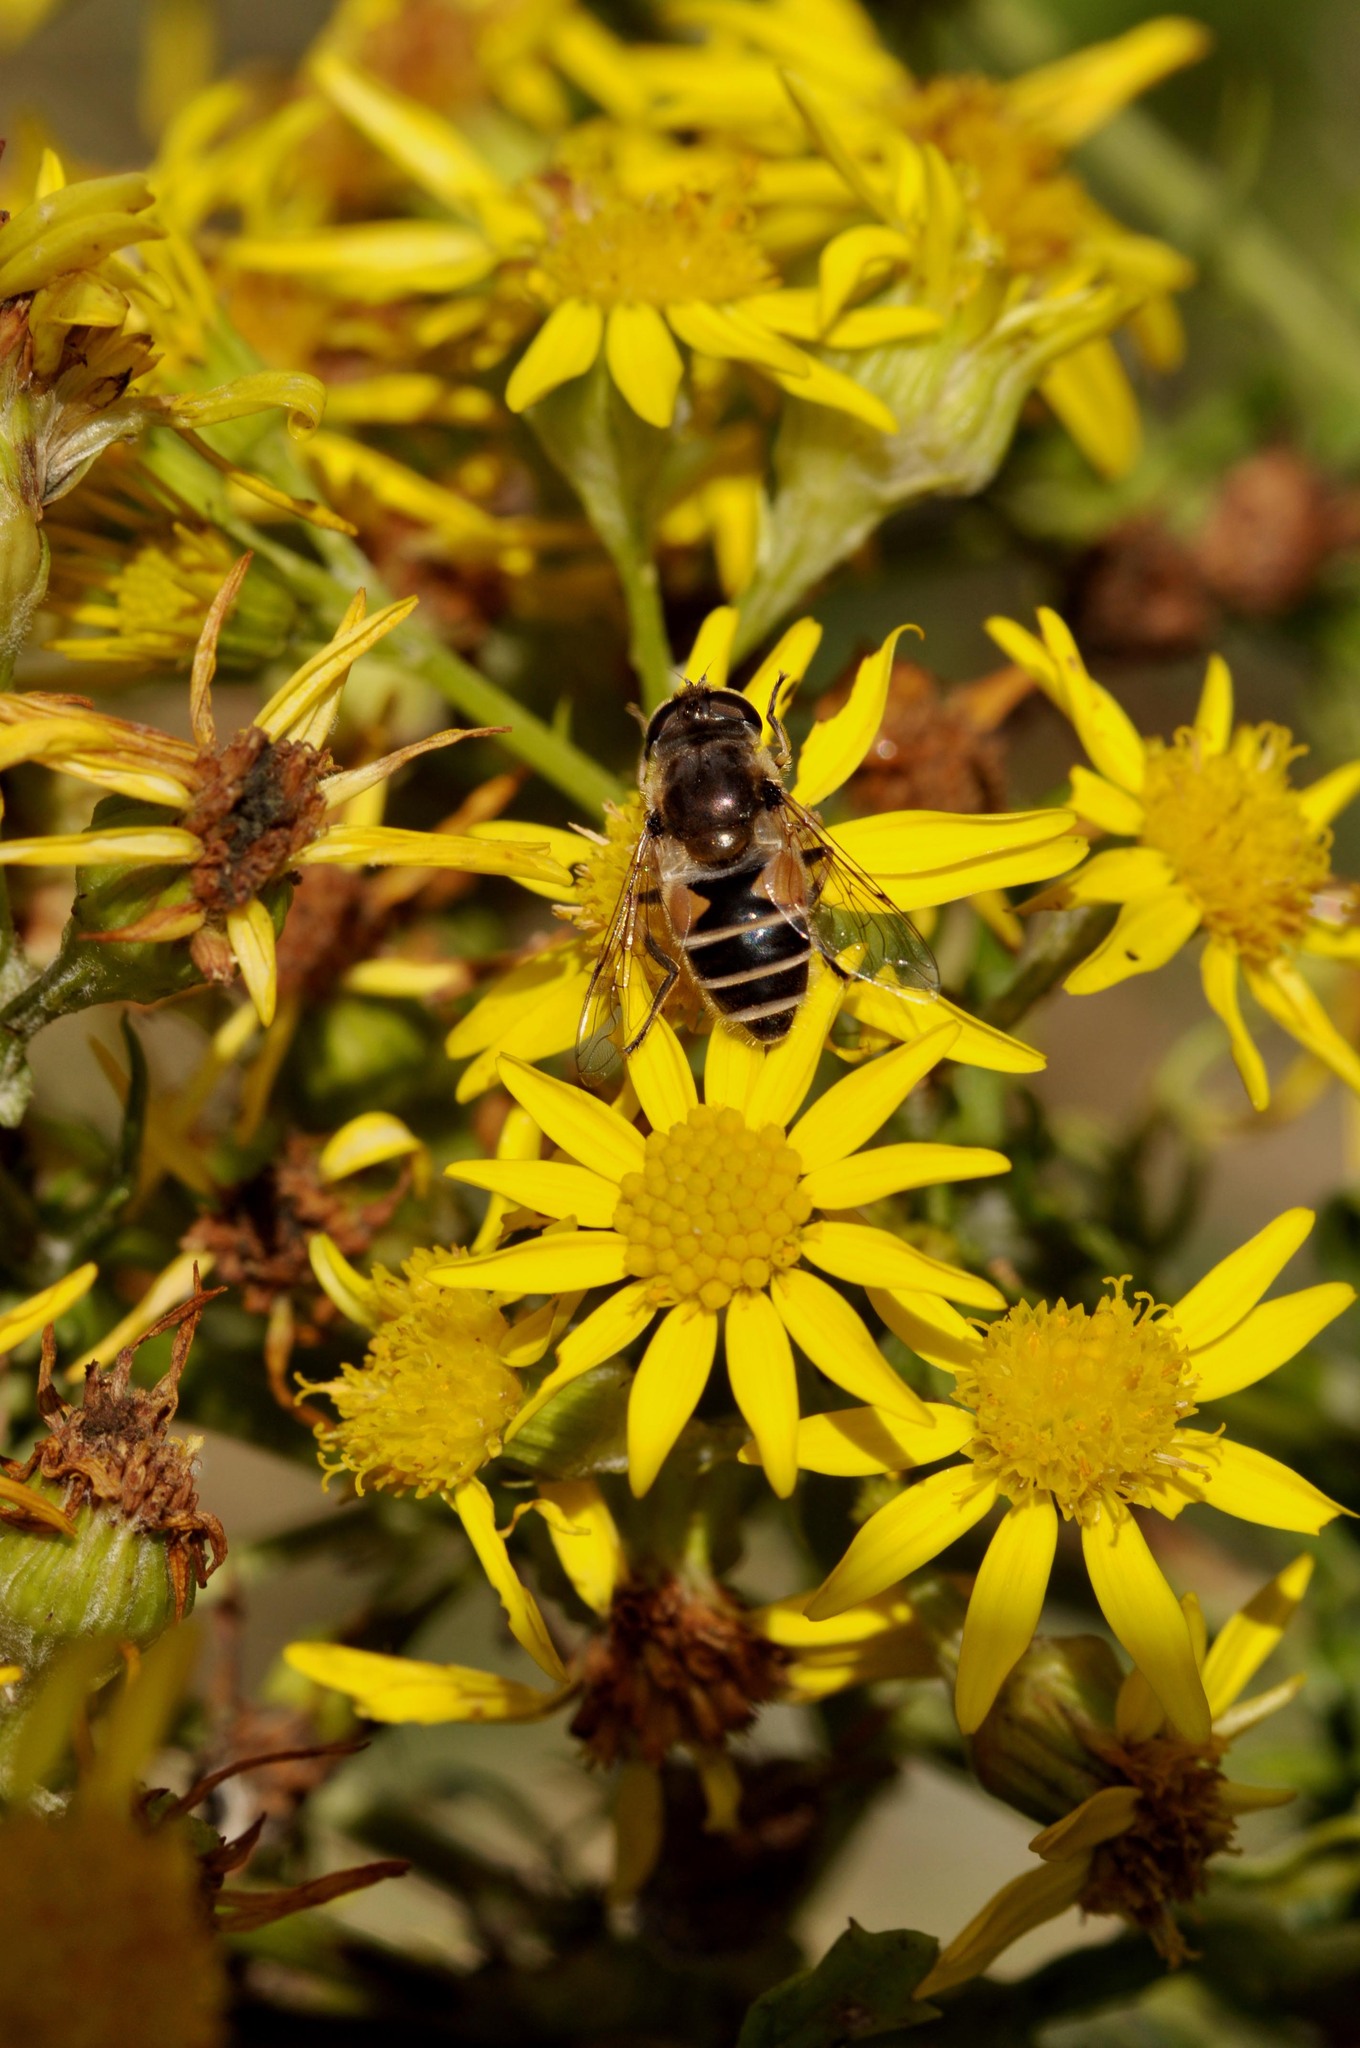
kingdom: Animalia
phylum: Arthropoda
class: Insecta
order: Diptera
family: Syrphidae
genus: Eoseristalis
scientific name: Eoseristalis
